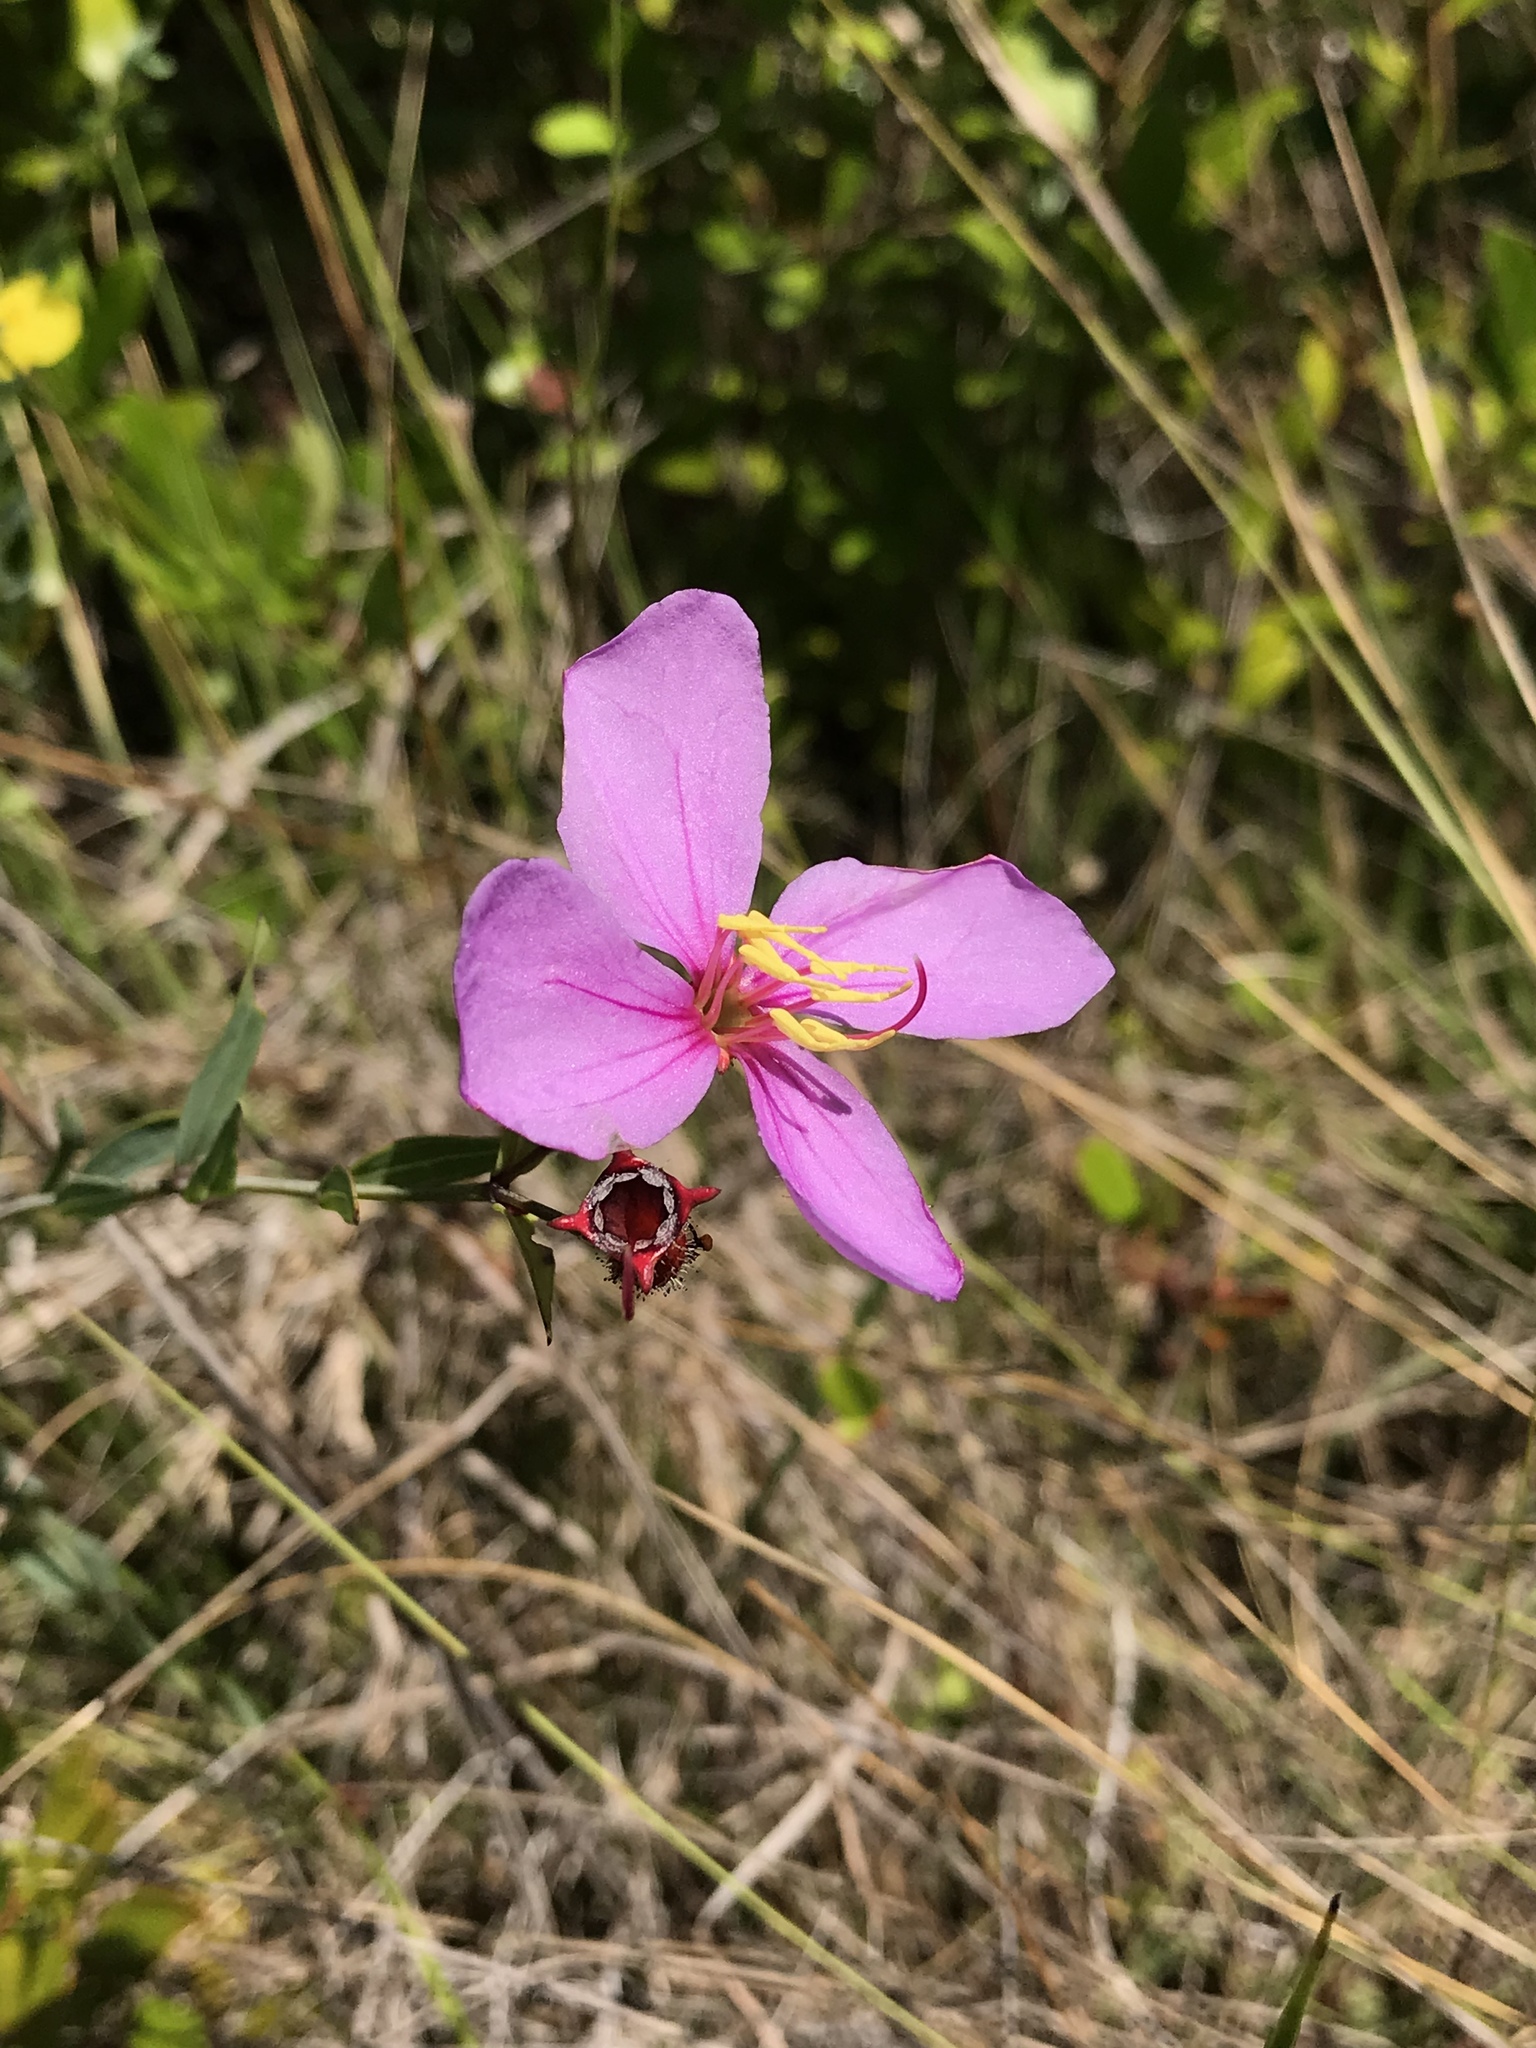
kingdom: Plantae
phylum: Tracheophyta
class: Magnoliopsida
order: Myrtales
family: Melastomataceae
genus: Rhexia
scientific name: Rhexia alifanus
